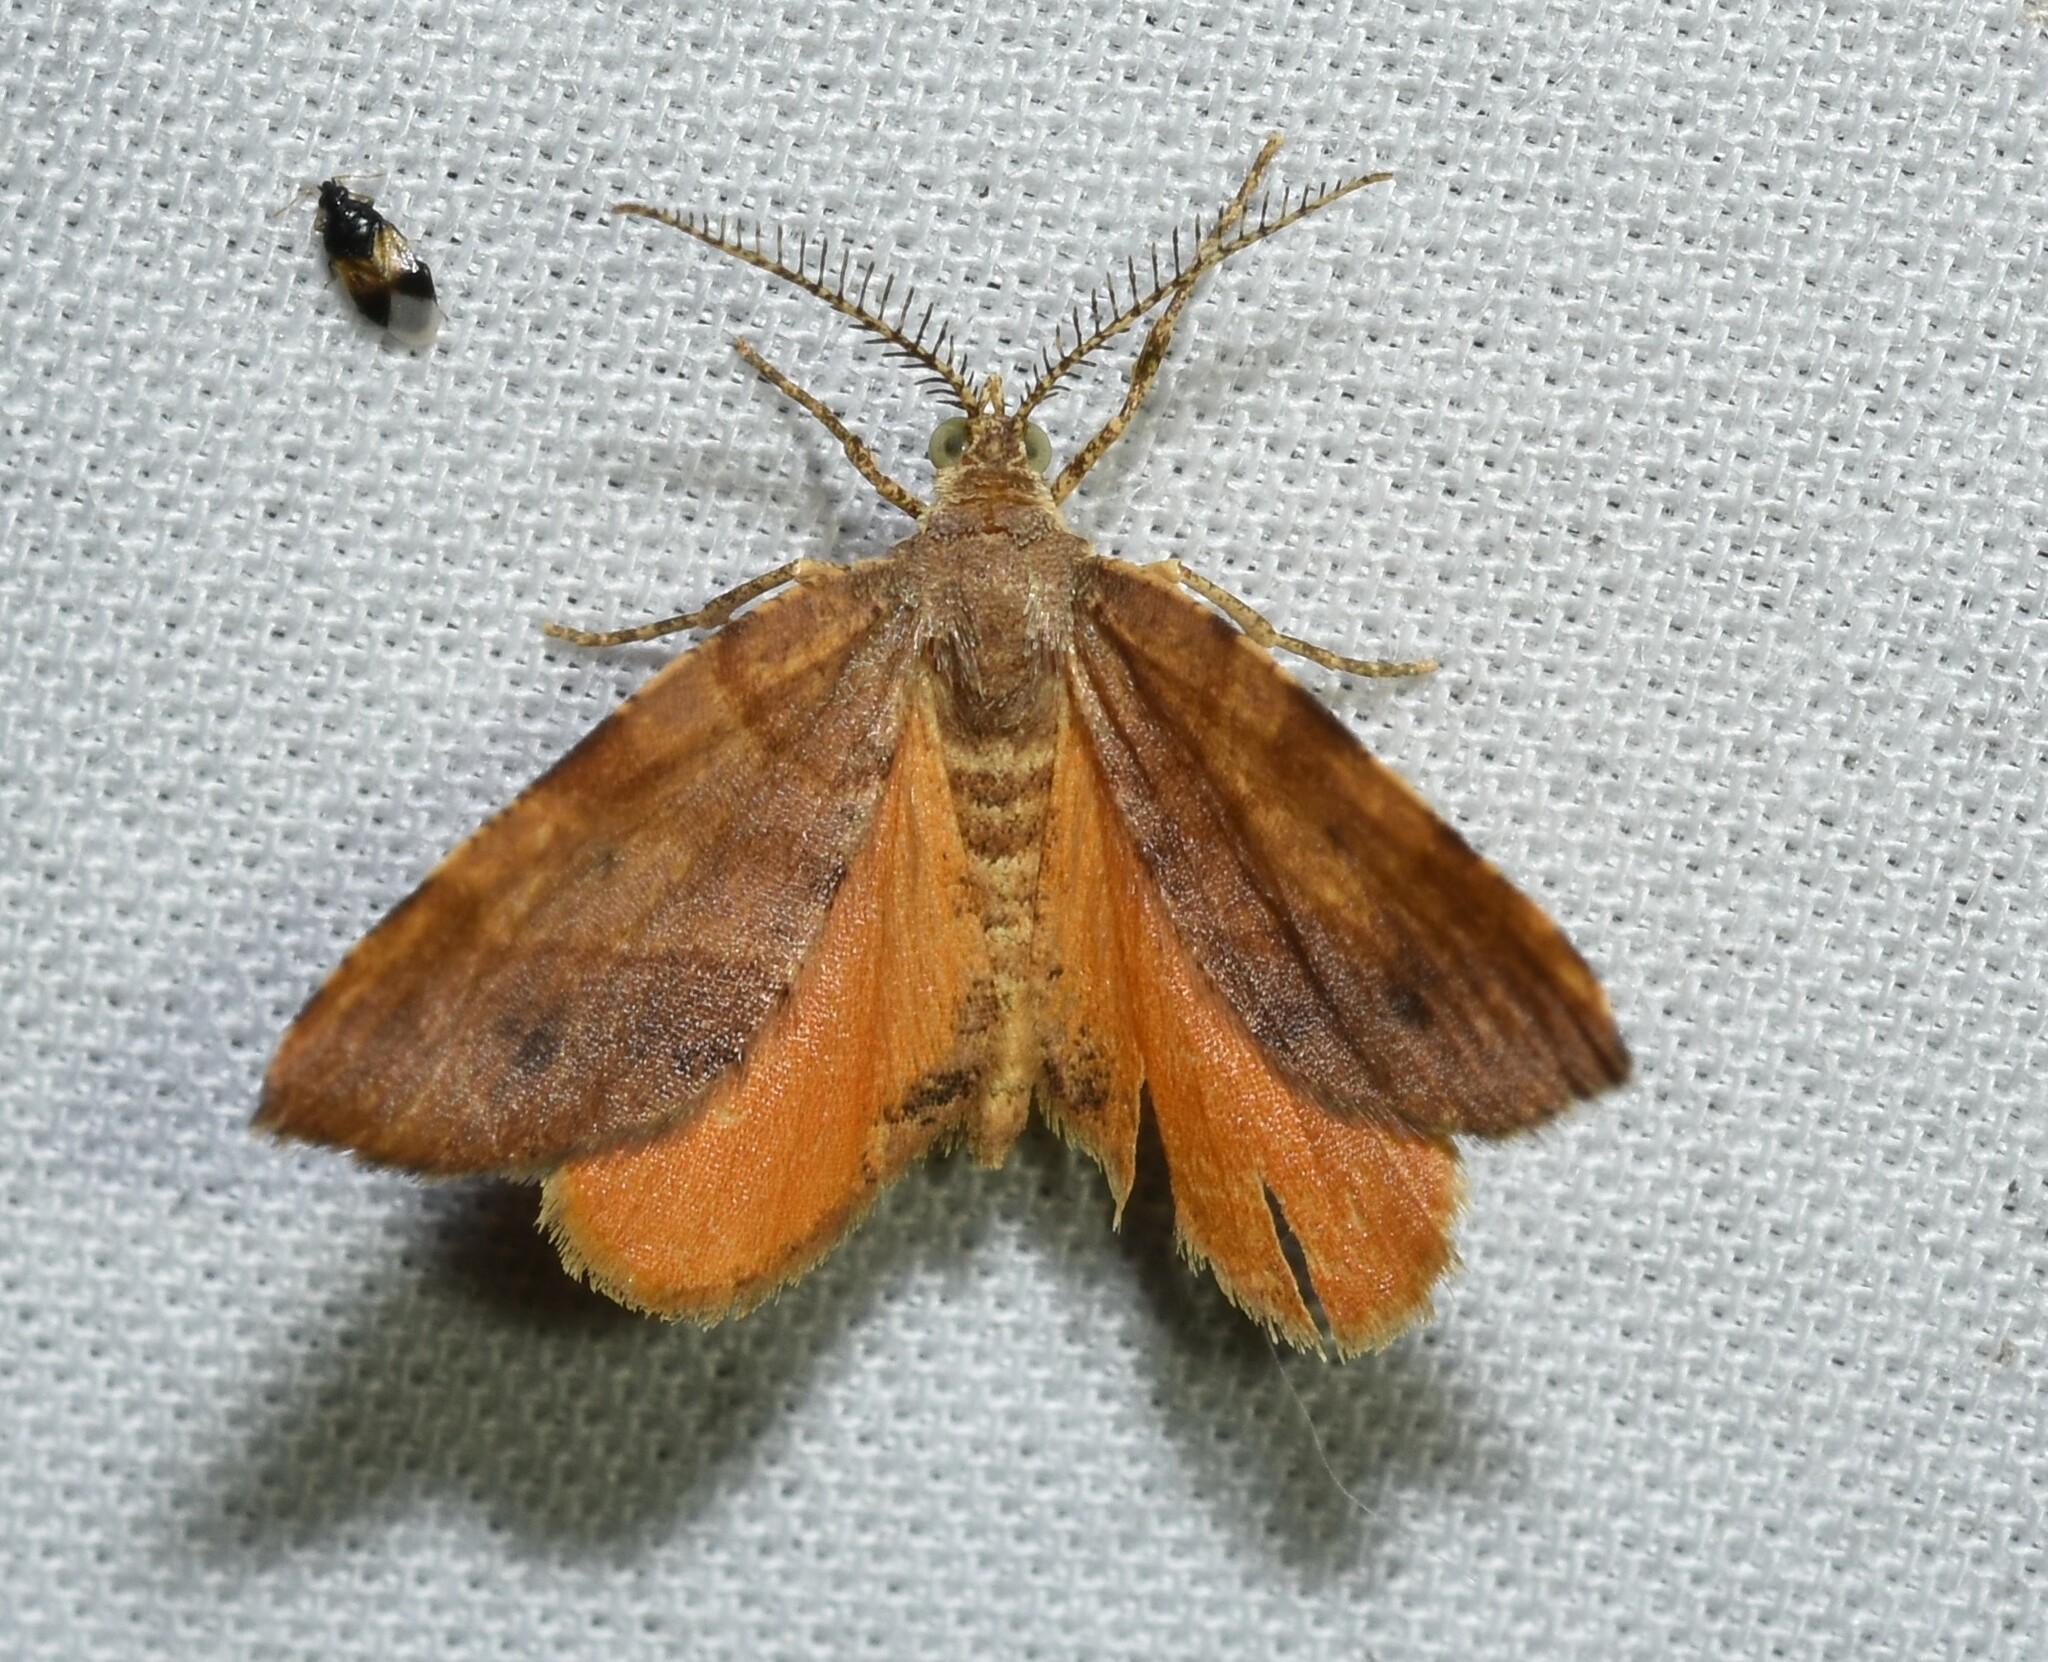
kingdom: Animalia
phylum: Arthropoda
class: Insecta
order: Lepidoptera
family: Geometridae
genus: Mellilla
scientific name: Mellilla xanthometata
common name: Orange wing moth
